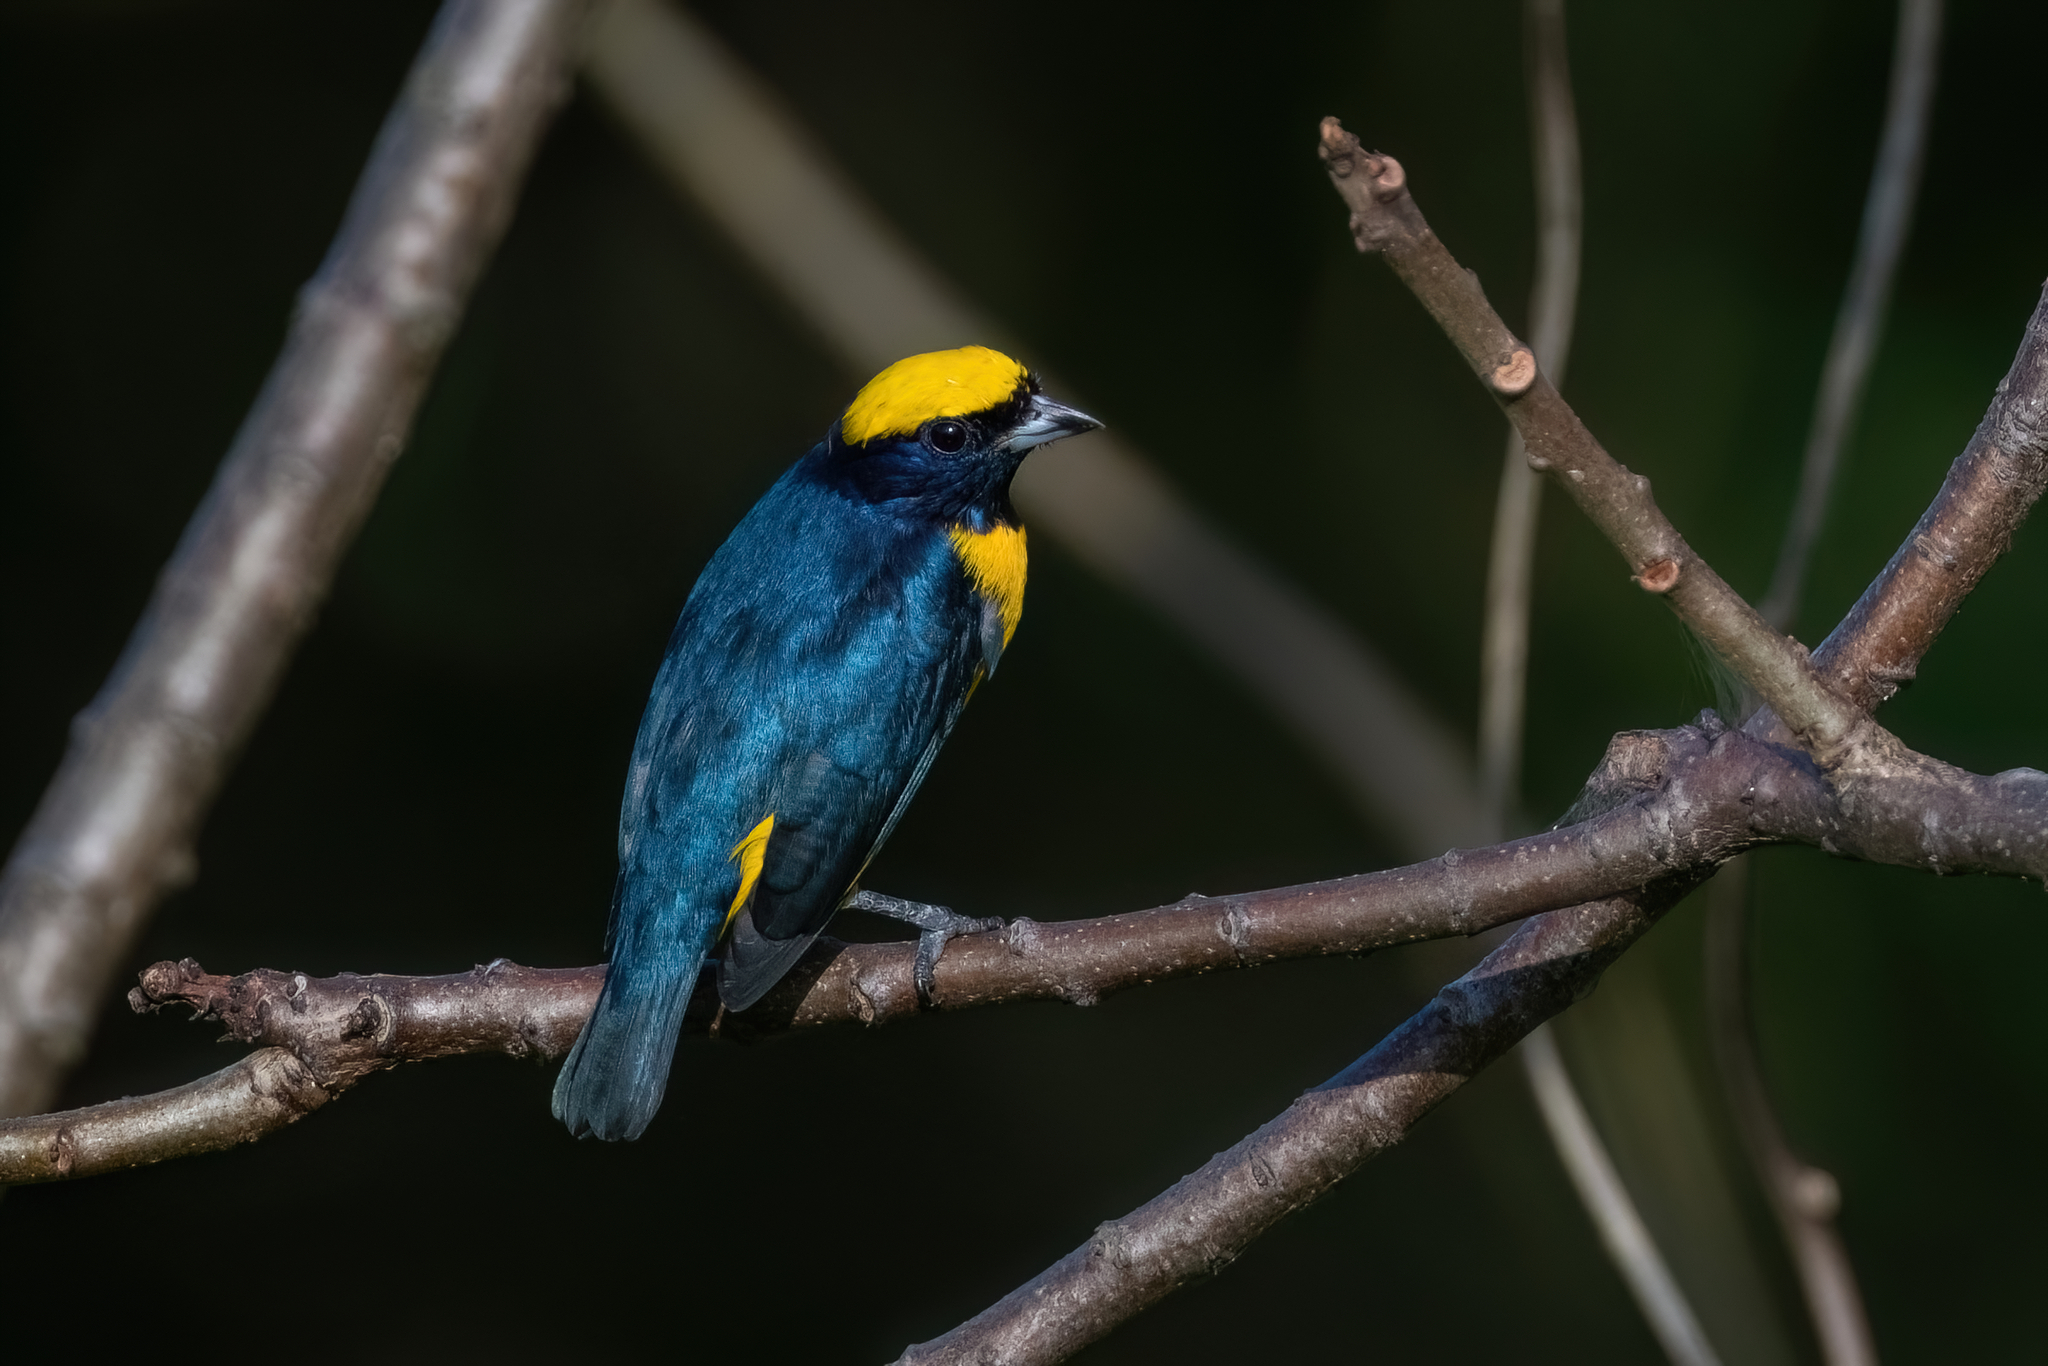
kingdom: Animalia
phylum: Chordata
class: Aves
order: Passeriformes
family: Fringillidae
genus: Euphonia
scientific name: Euphonia luteicapilla
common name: Yellow-crowned euphonia
